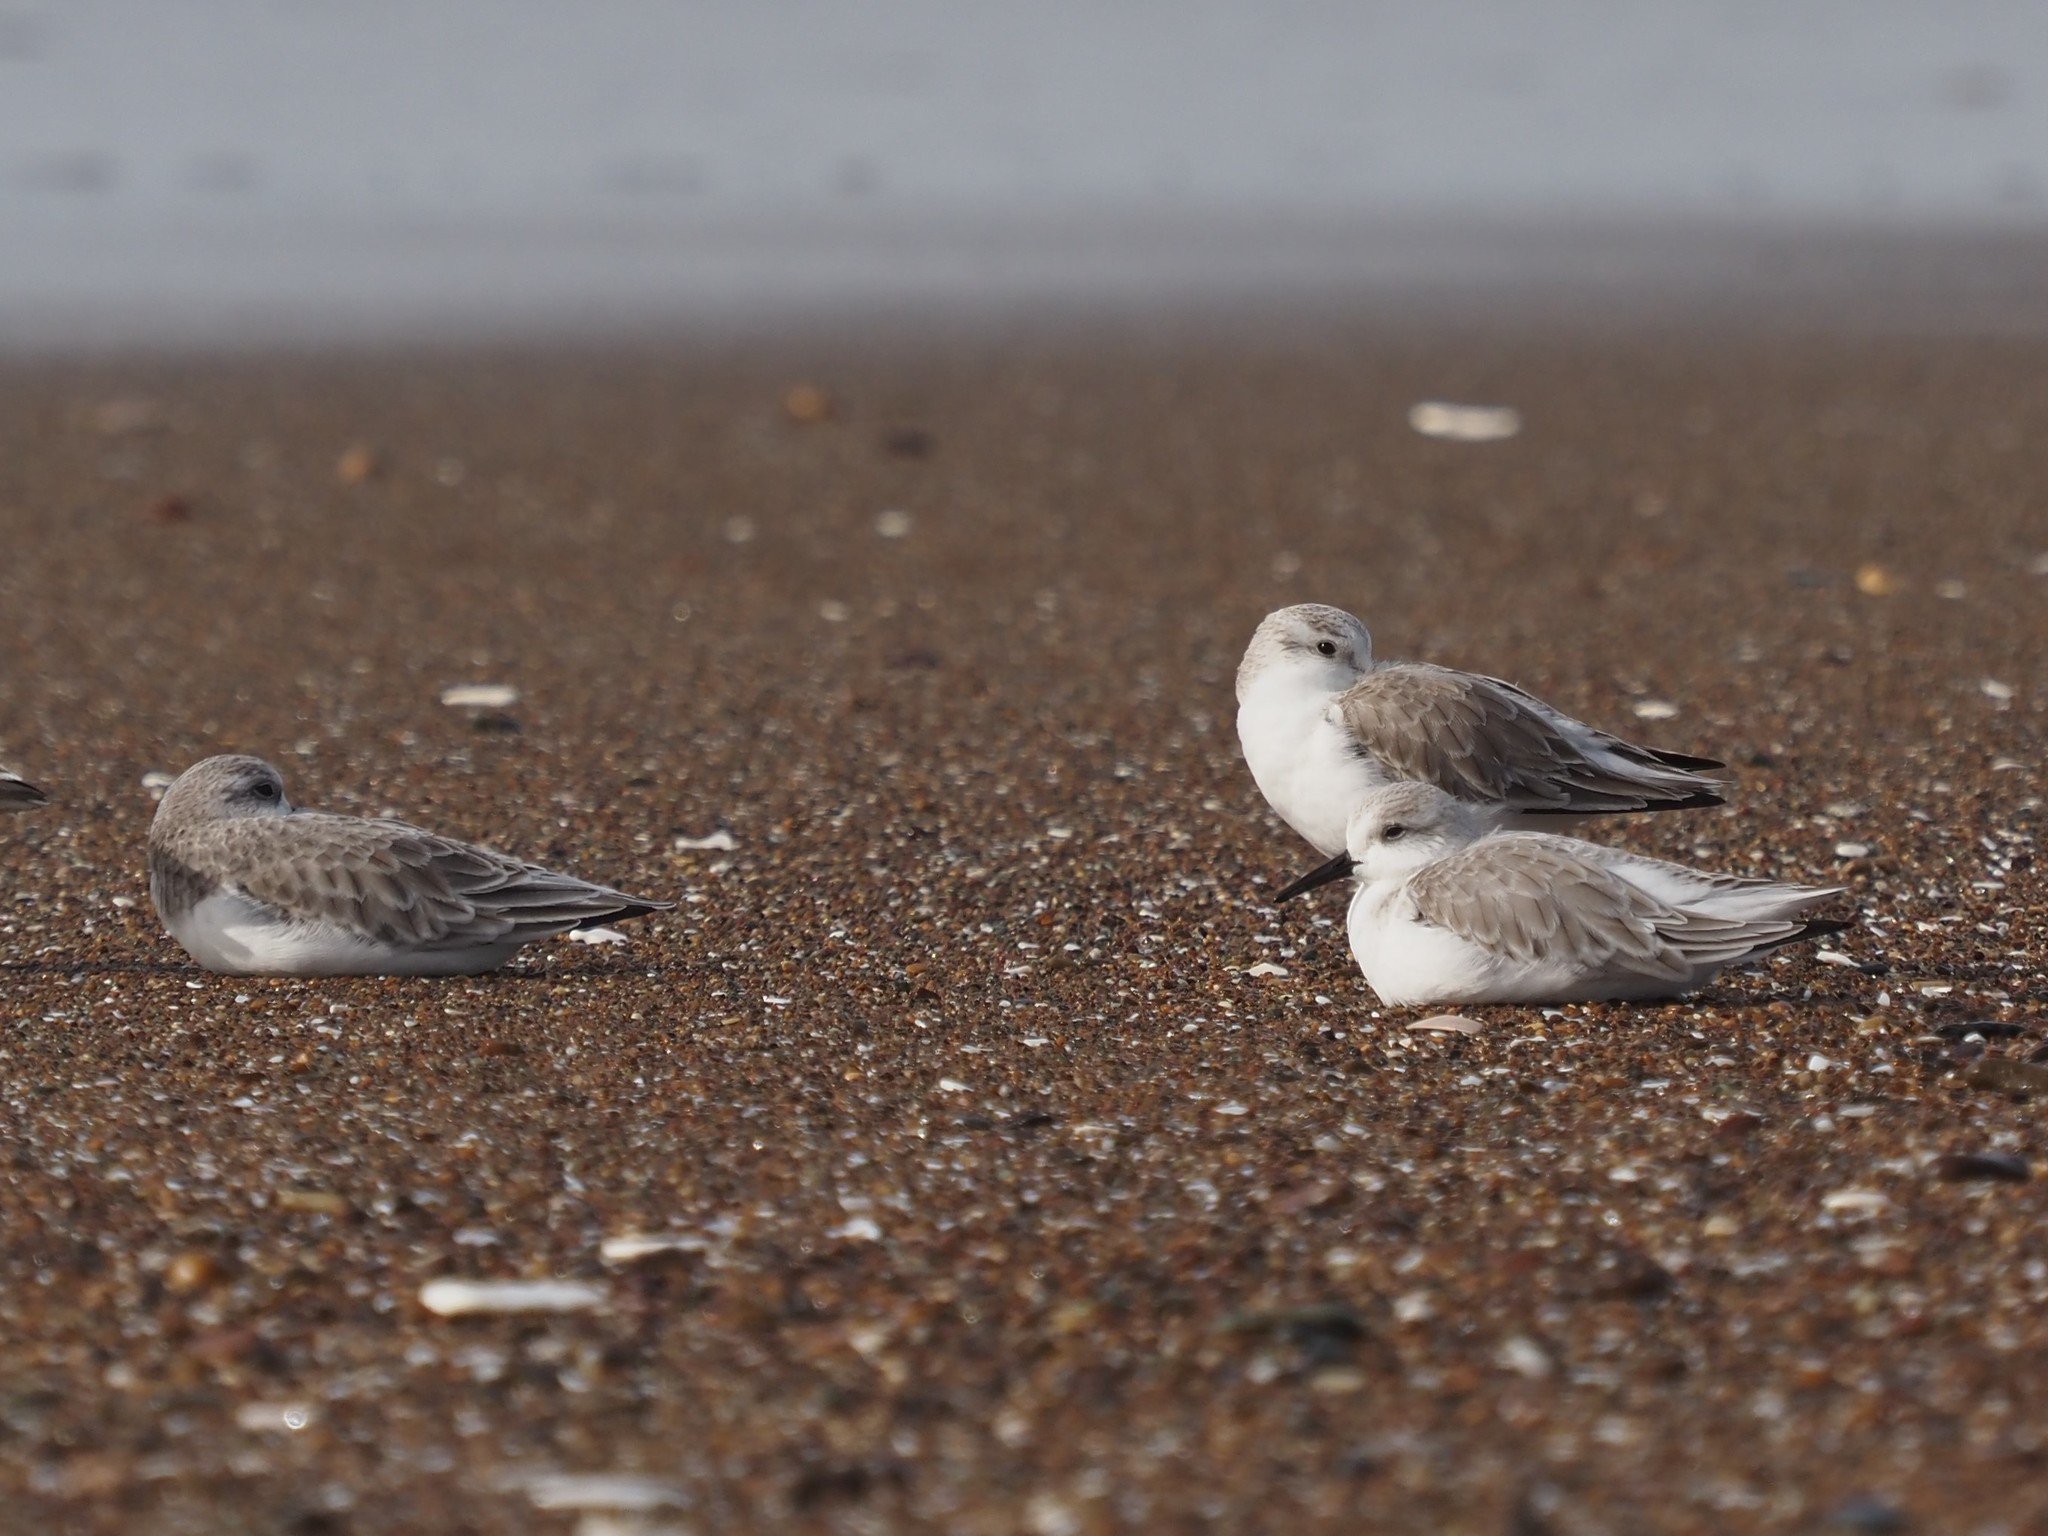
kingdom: Animalia
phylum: Chordata
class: Aves
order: Charadriiformes
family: Scolopacidae
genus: Calidris
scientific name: Calidris alba
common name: Sanderling
